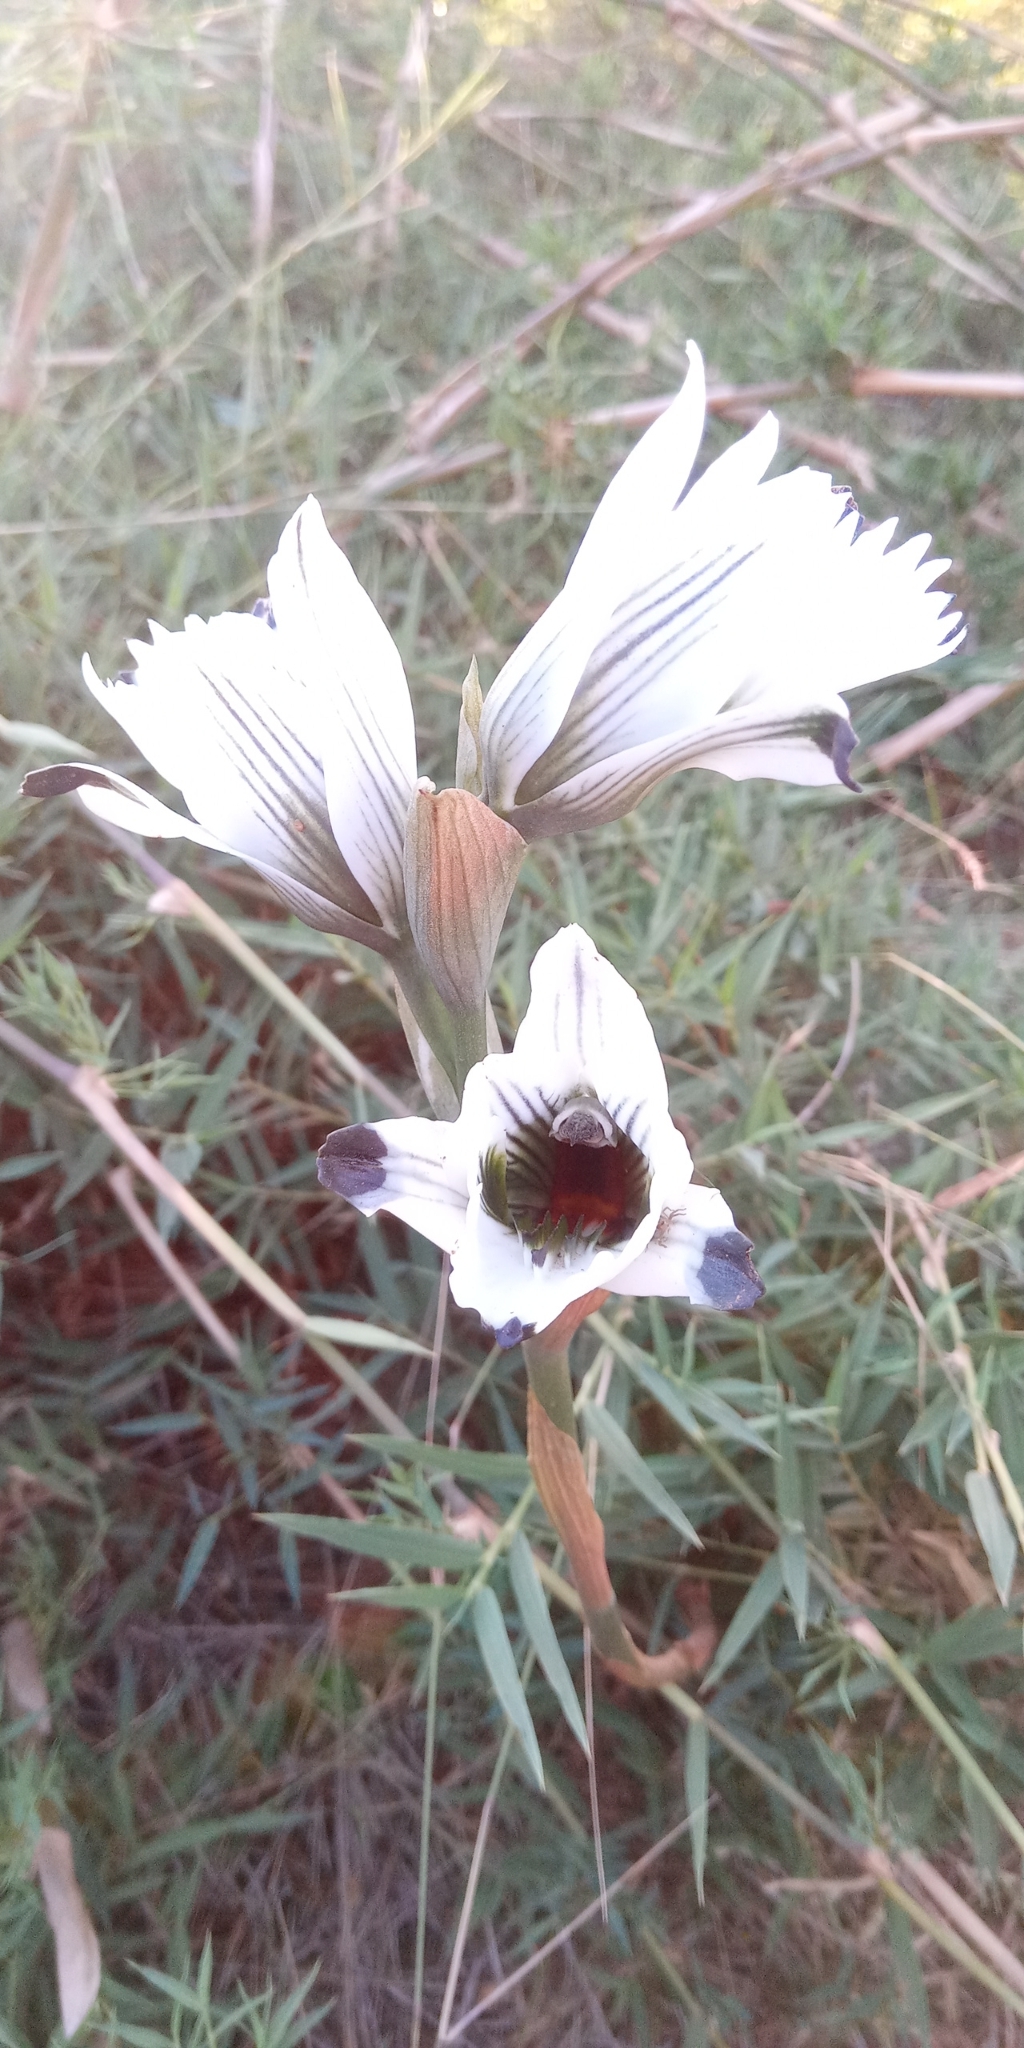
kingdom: Plantae
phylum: Tracheophyta
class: Liliopsida
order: Asparagales
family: Orchidaceae
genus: Chloraea
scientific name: Chloraea bletioides
